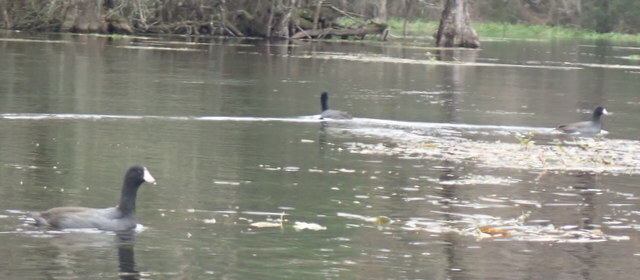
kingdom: Animalia
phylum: Chordata
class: Aves
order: Gruiformes
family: Rallidae
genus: Fulica
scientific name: Fulica americana
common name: American coot
